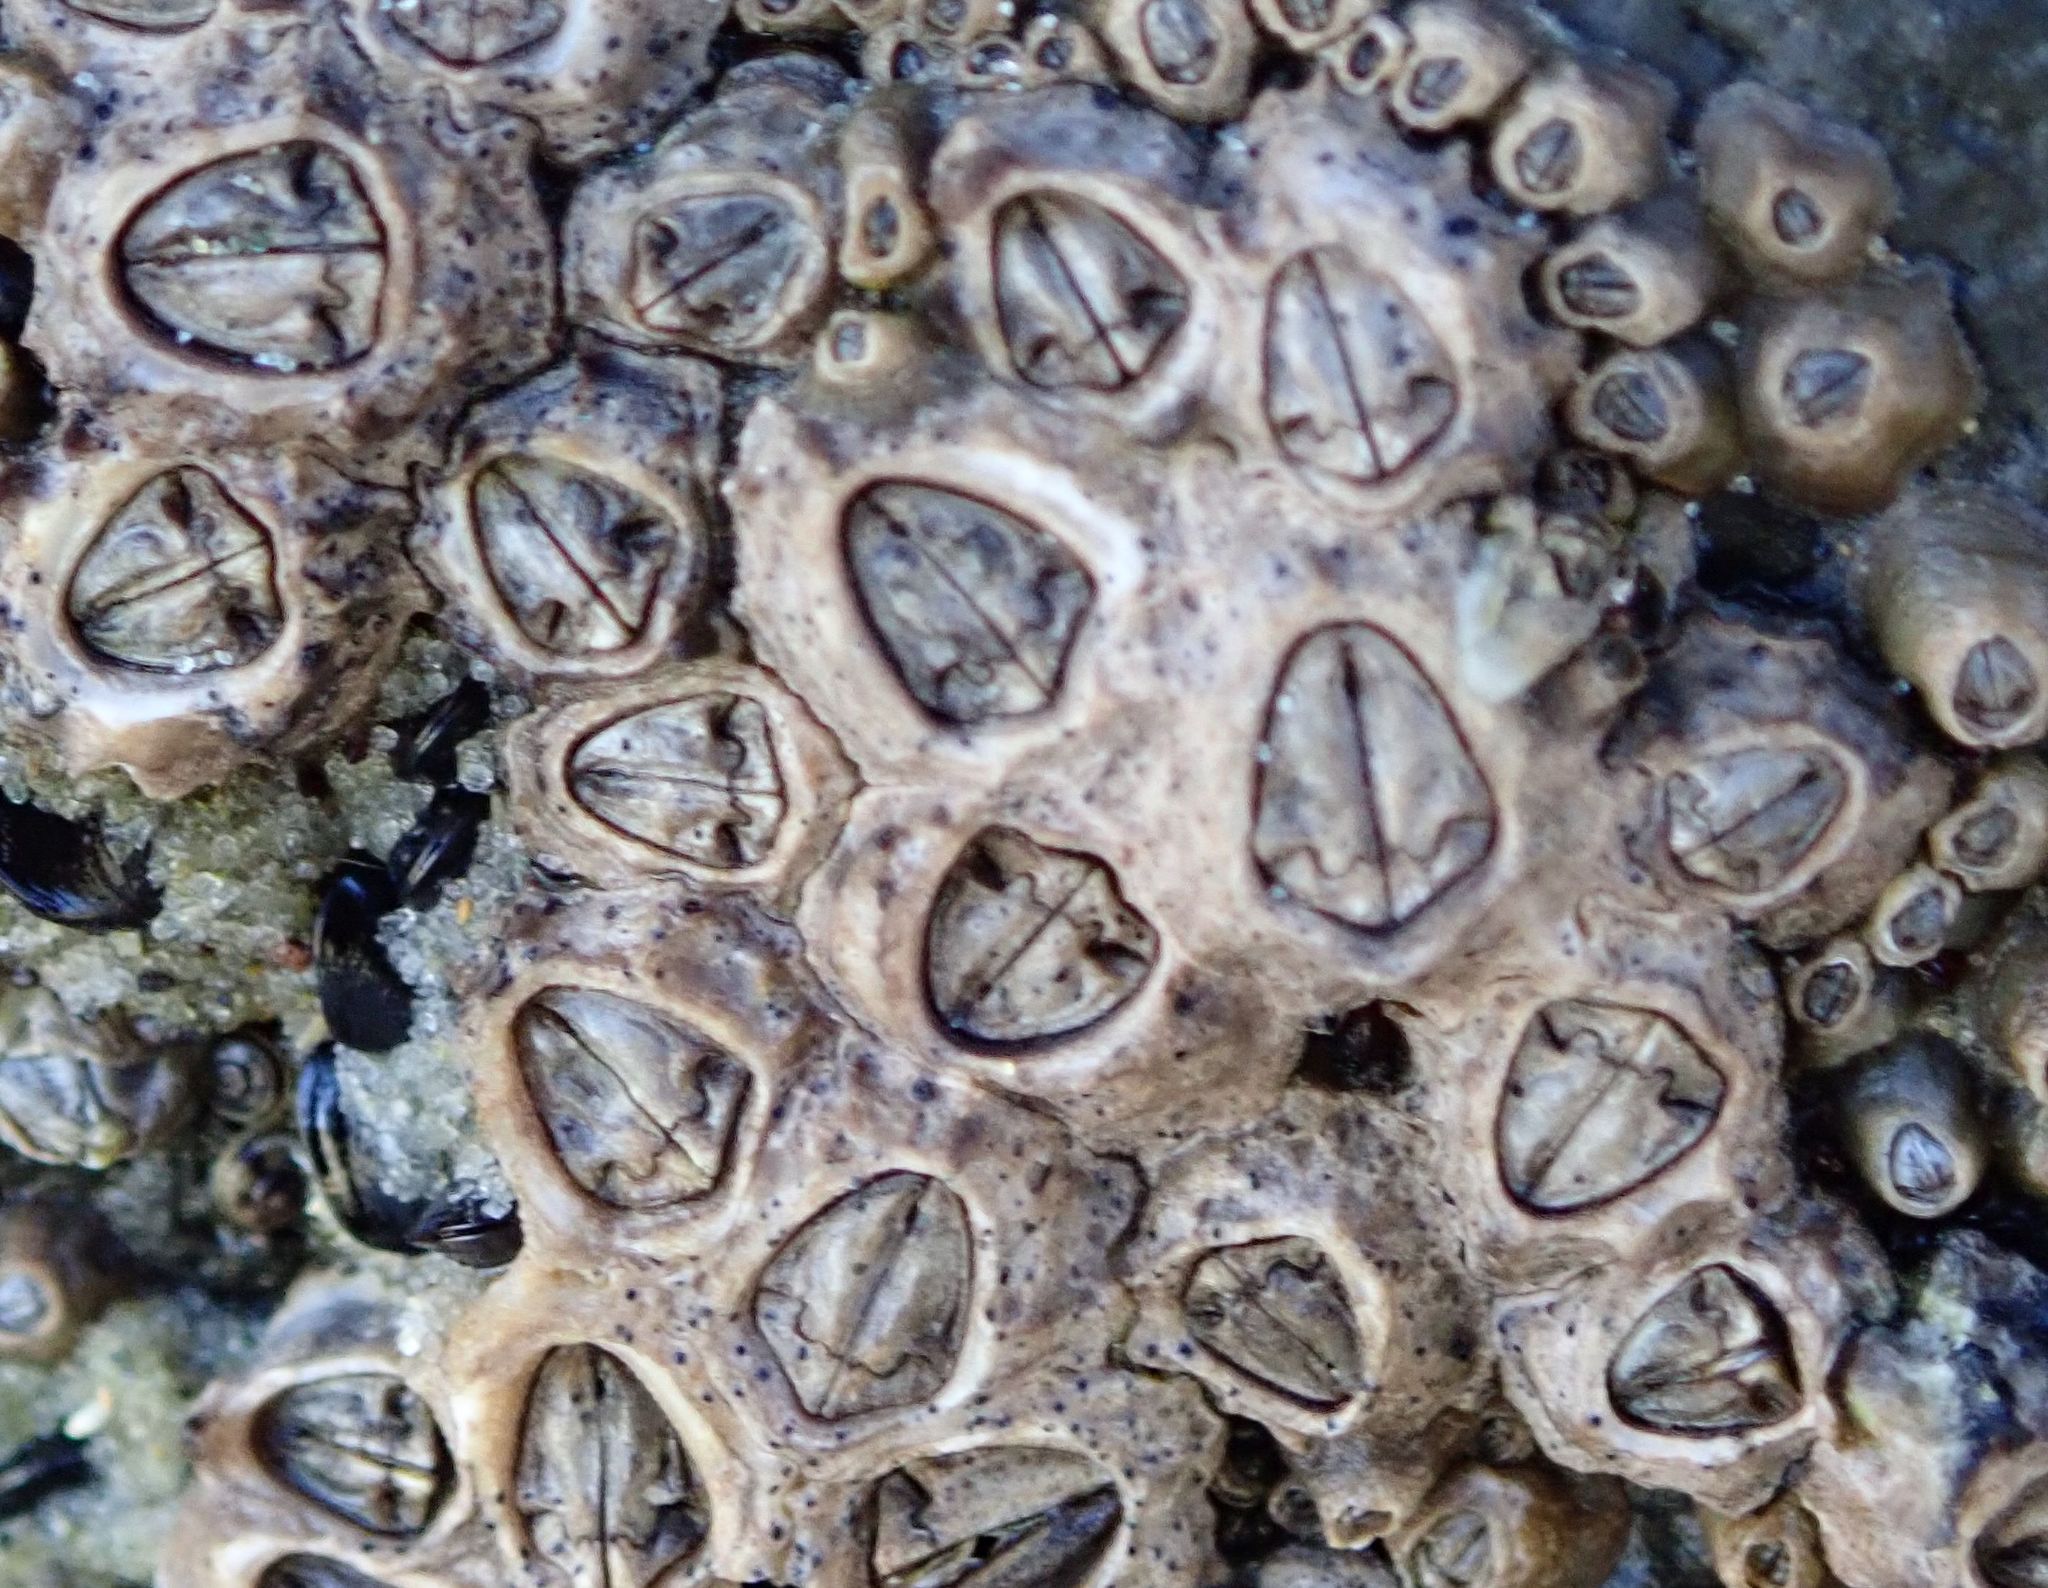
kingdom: Animalia
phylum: Arthropoda
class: Maxillopoda
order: Sessilia
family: Chthamalidae
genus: Chamaesipho
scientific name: Chamaesipho brunnea
